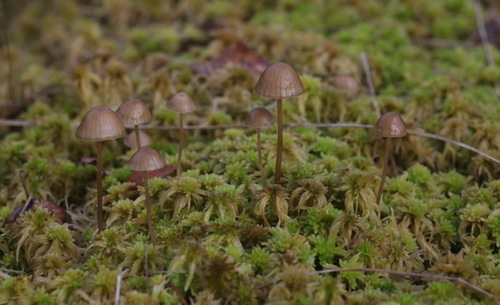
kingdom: Fungi
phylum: Basidiomycota
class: Agaricomycetes
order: Agaricales
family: Mycenaceae
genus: Mycena
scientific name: Mycena silvae-nigrae
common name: Pine bonnet
